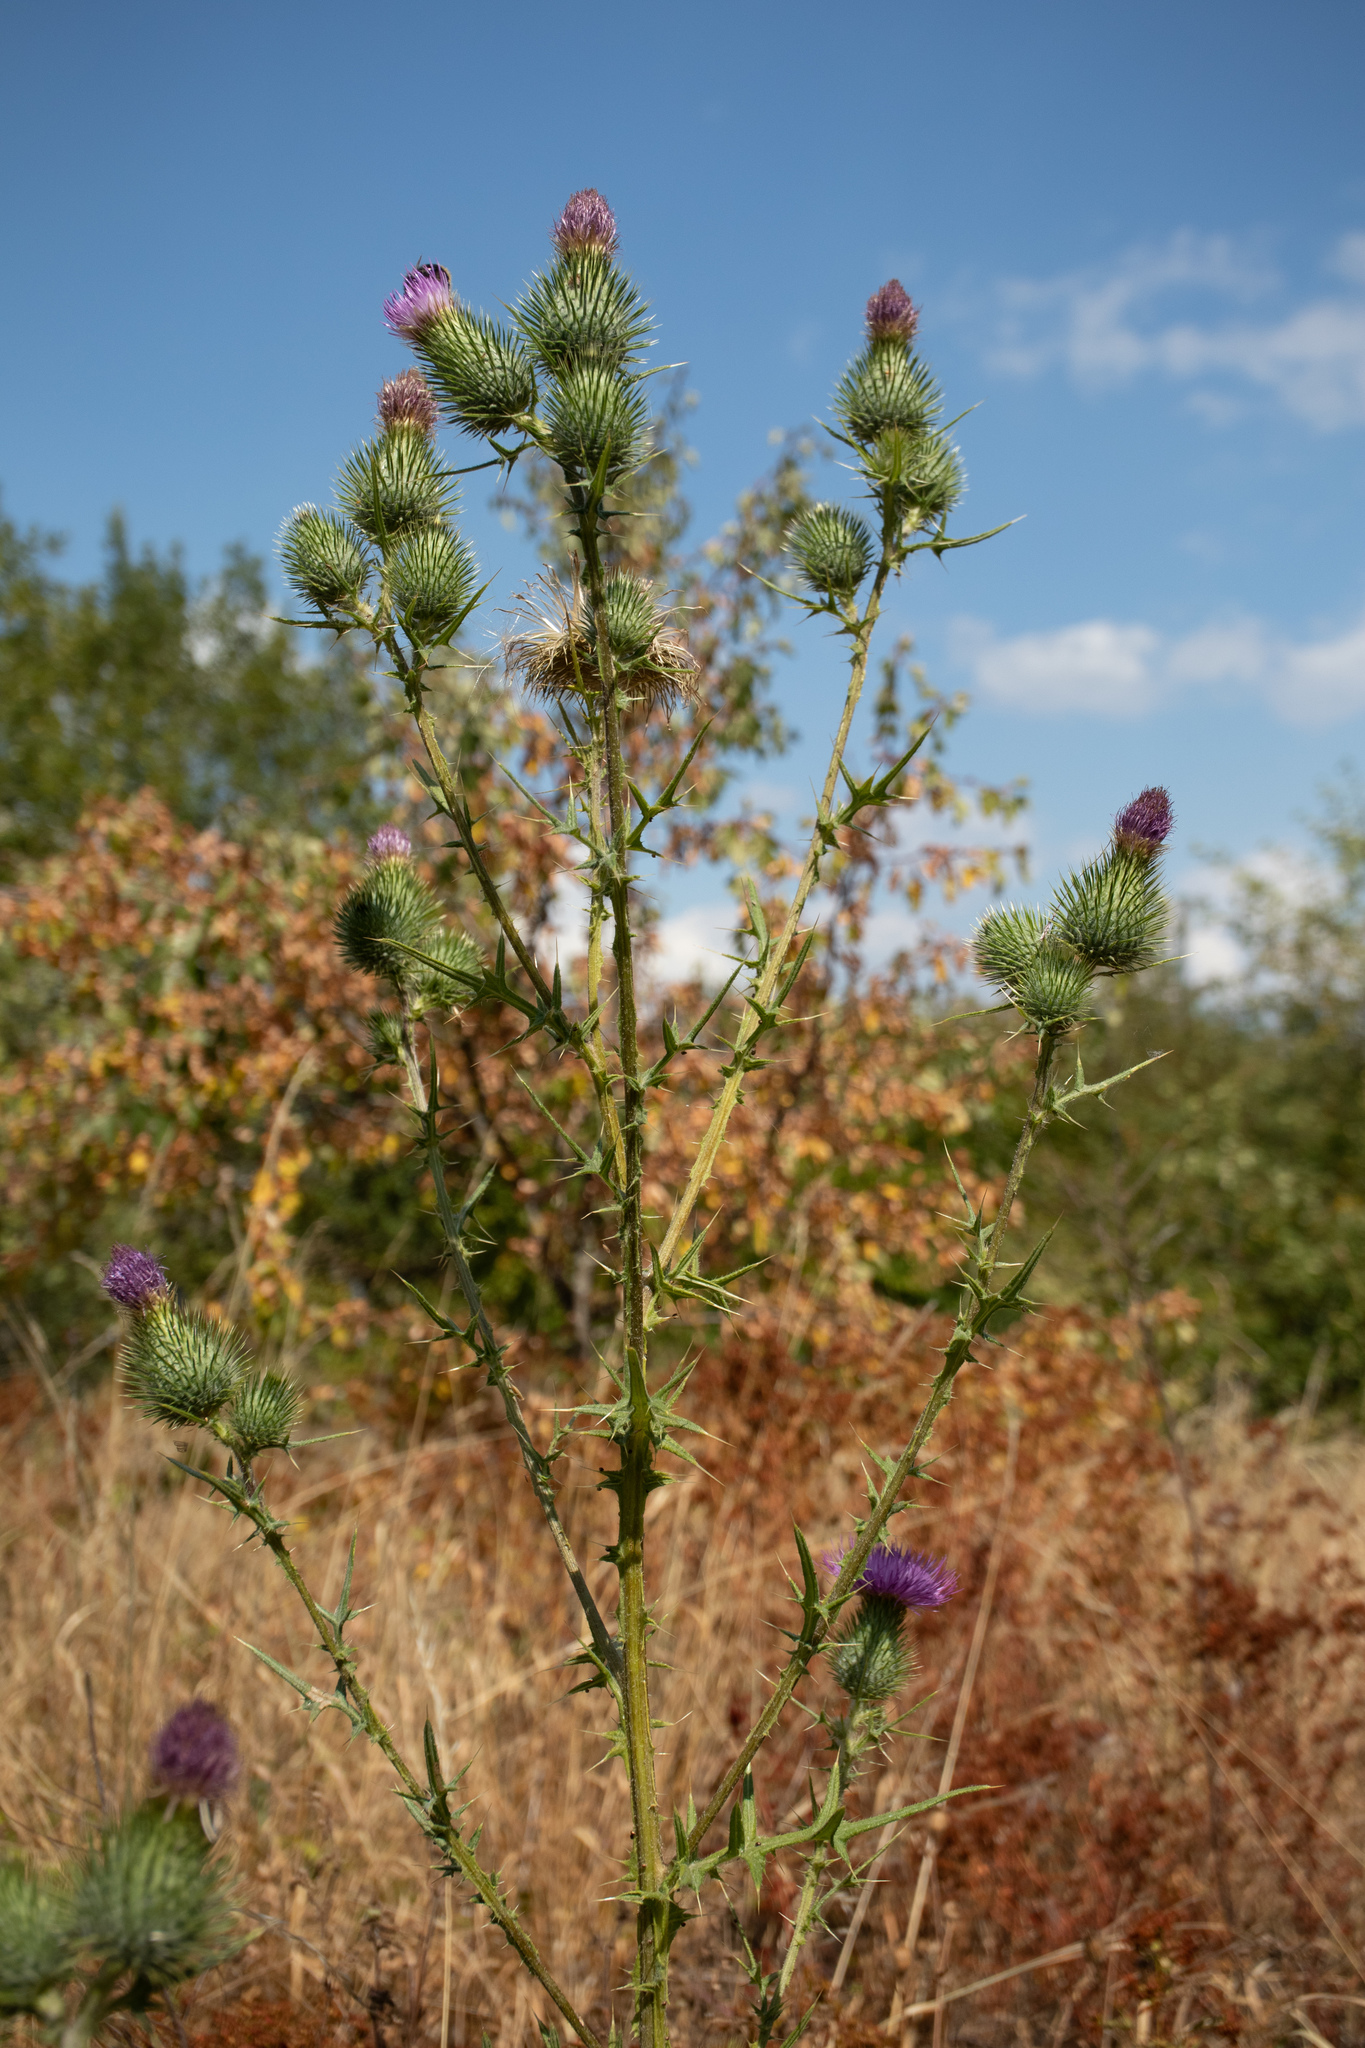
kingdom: Plantae
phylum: Tracheophyta
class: Magnoliopsida
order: Asterales
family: Asteraceae
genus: Cirsium
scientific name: Cirsium vulgare
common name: Bull thistle
